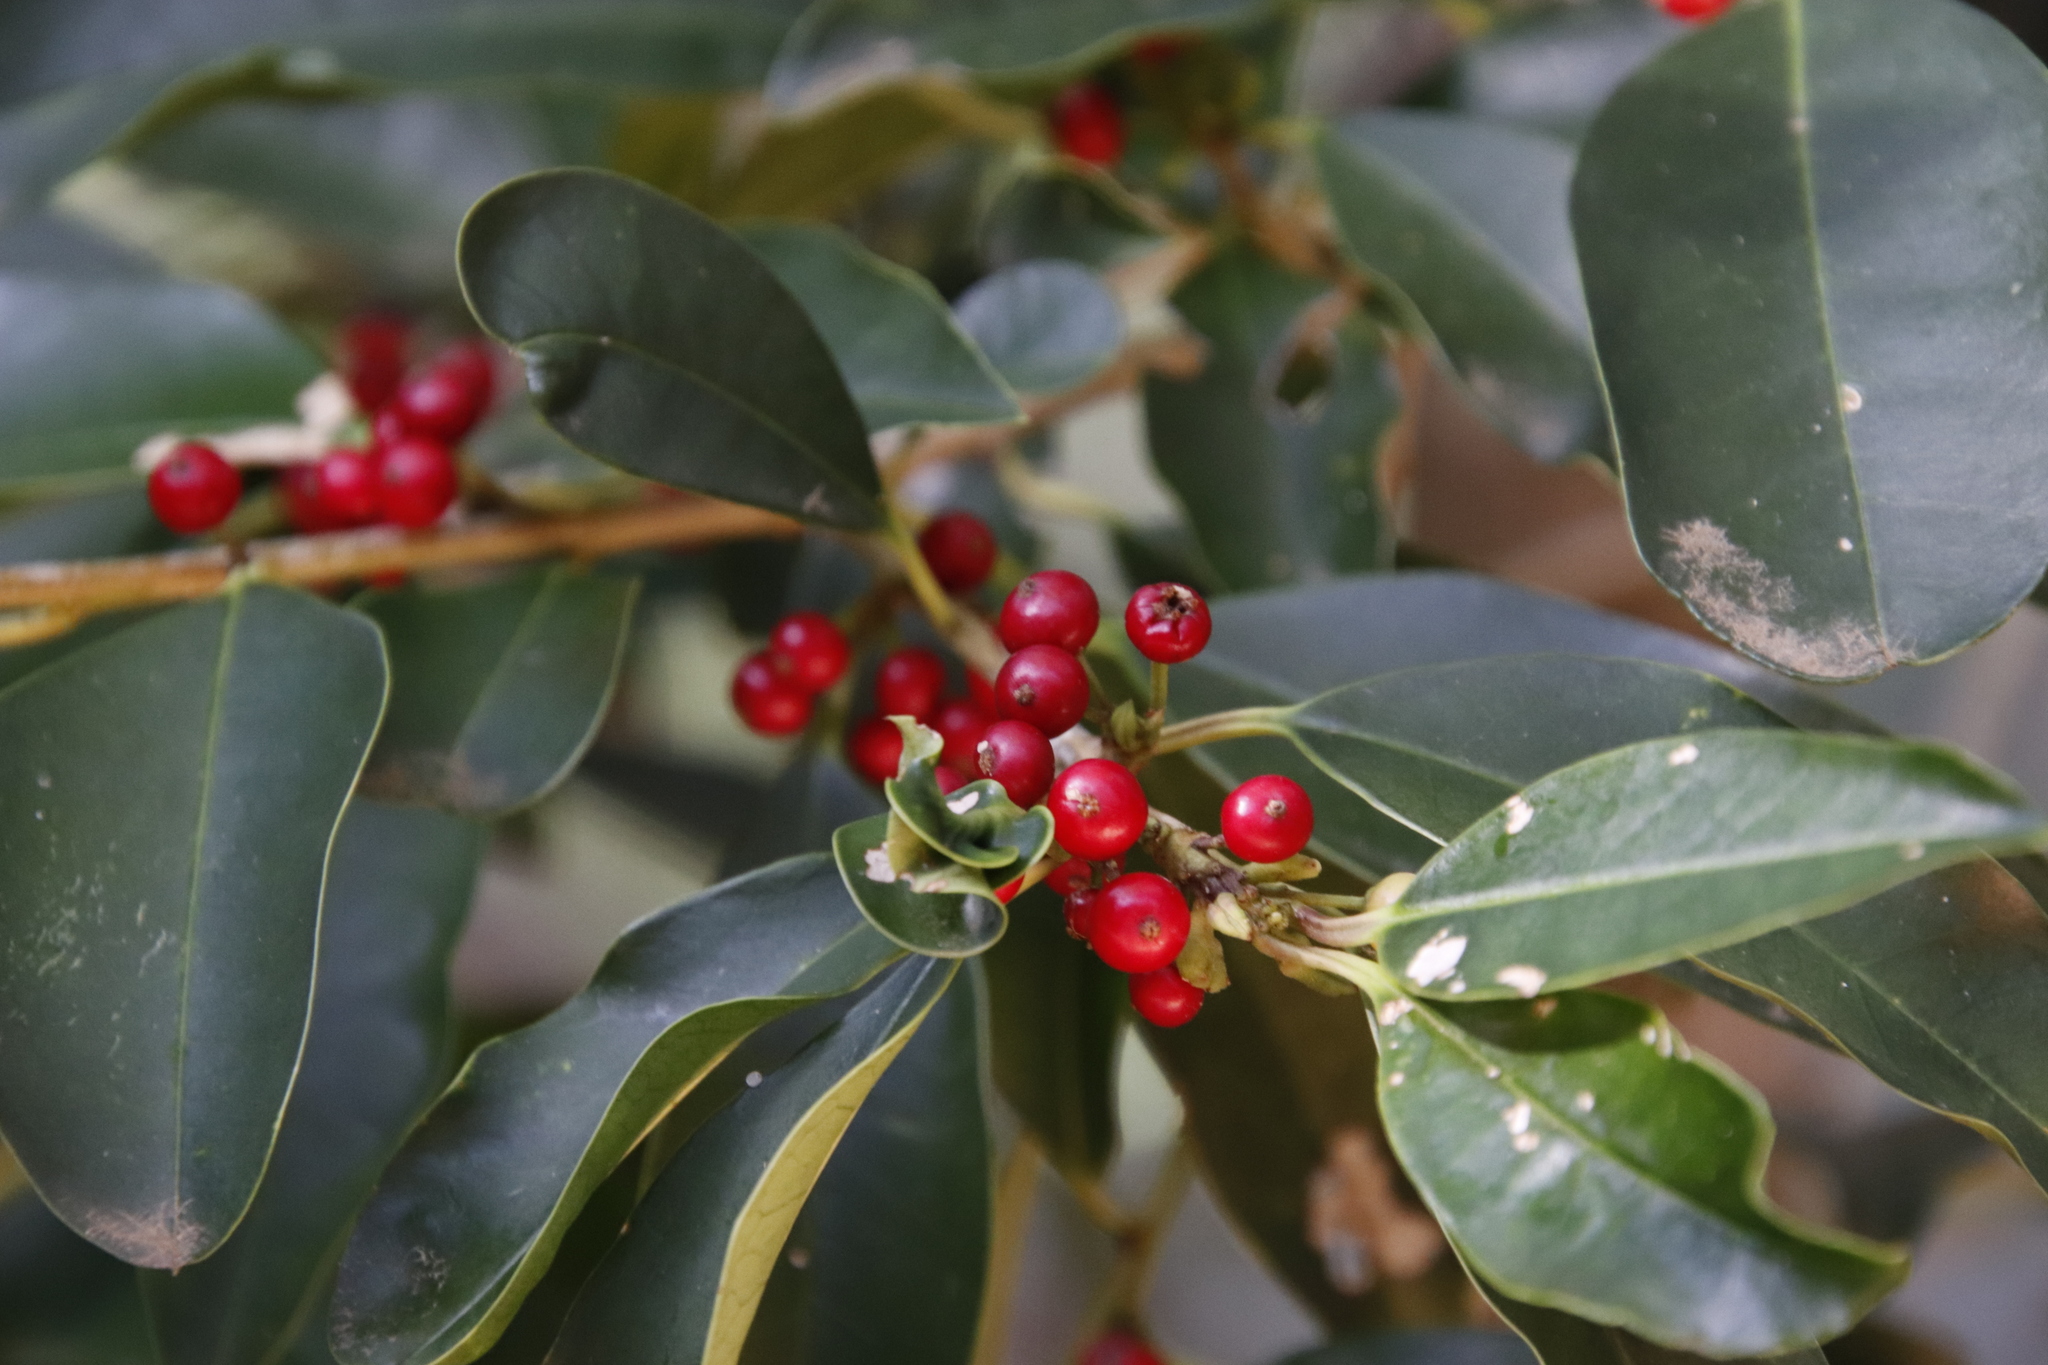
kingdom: Plantae
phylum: Tracheophyta
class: Magnoliopsida
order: Aquifoliales
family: Aquifoliaceae
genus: Ilex
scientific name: Ilex mitis
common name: African holly
